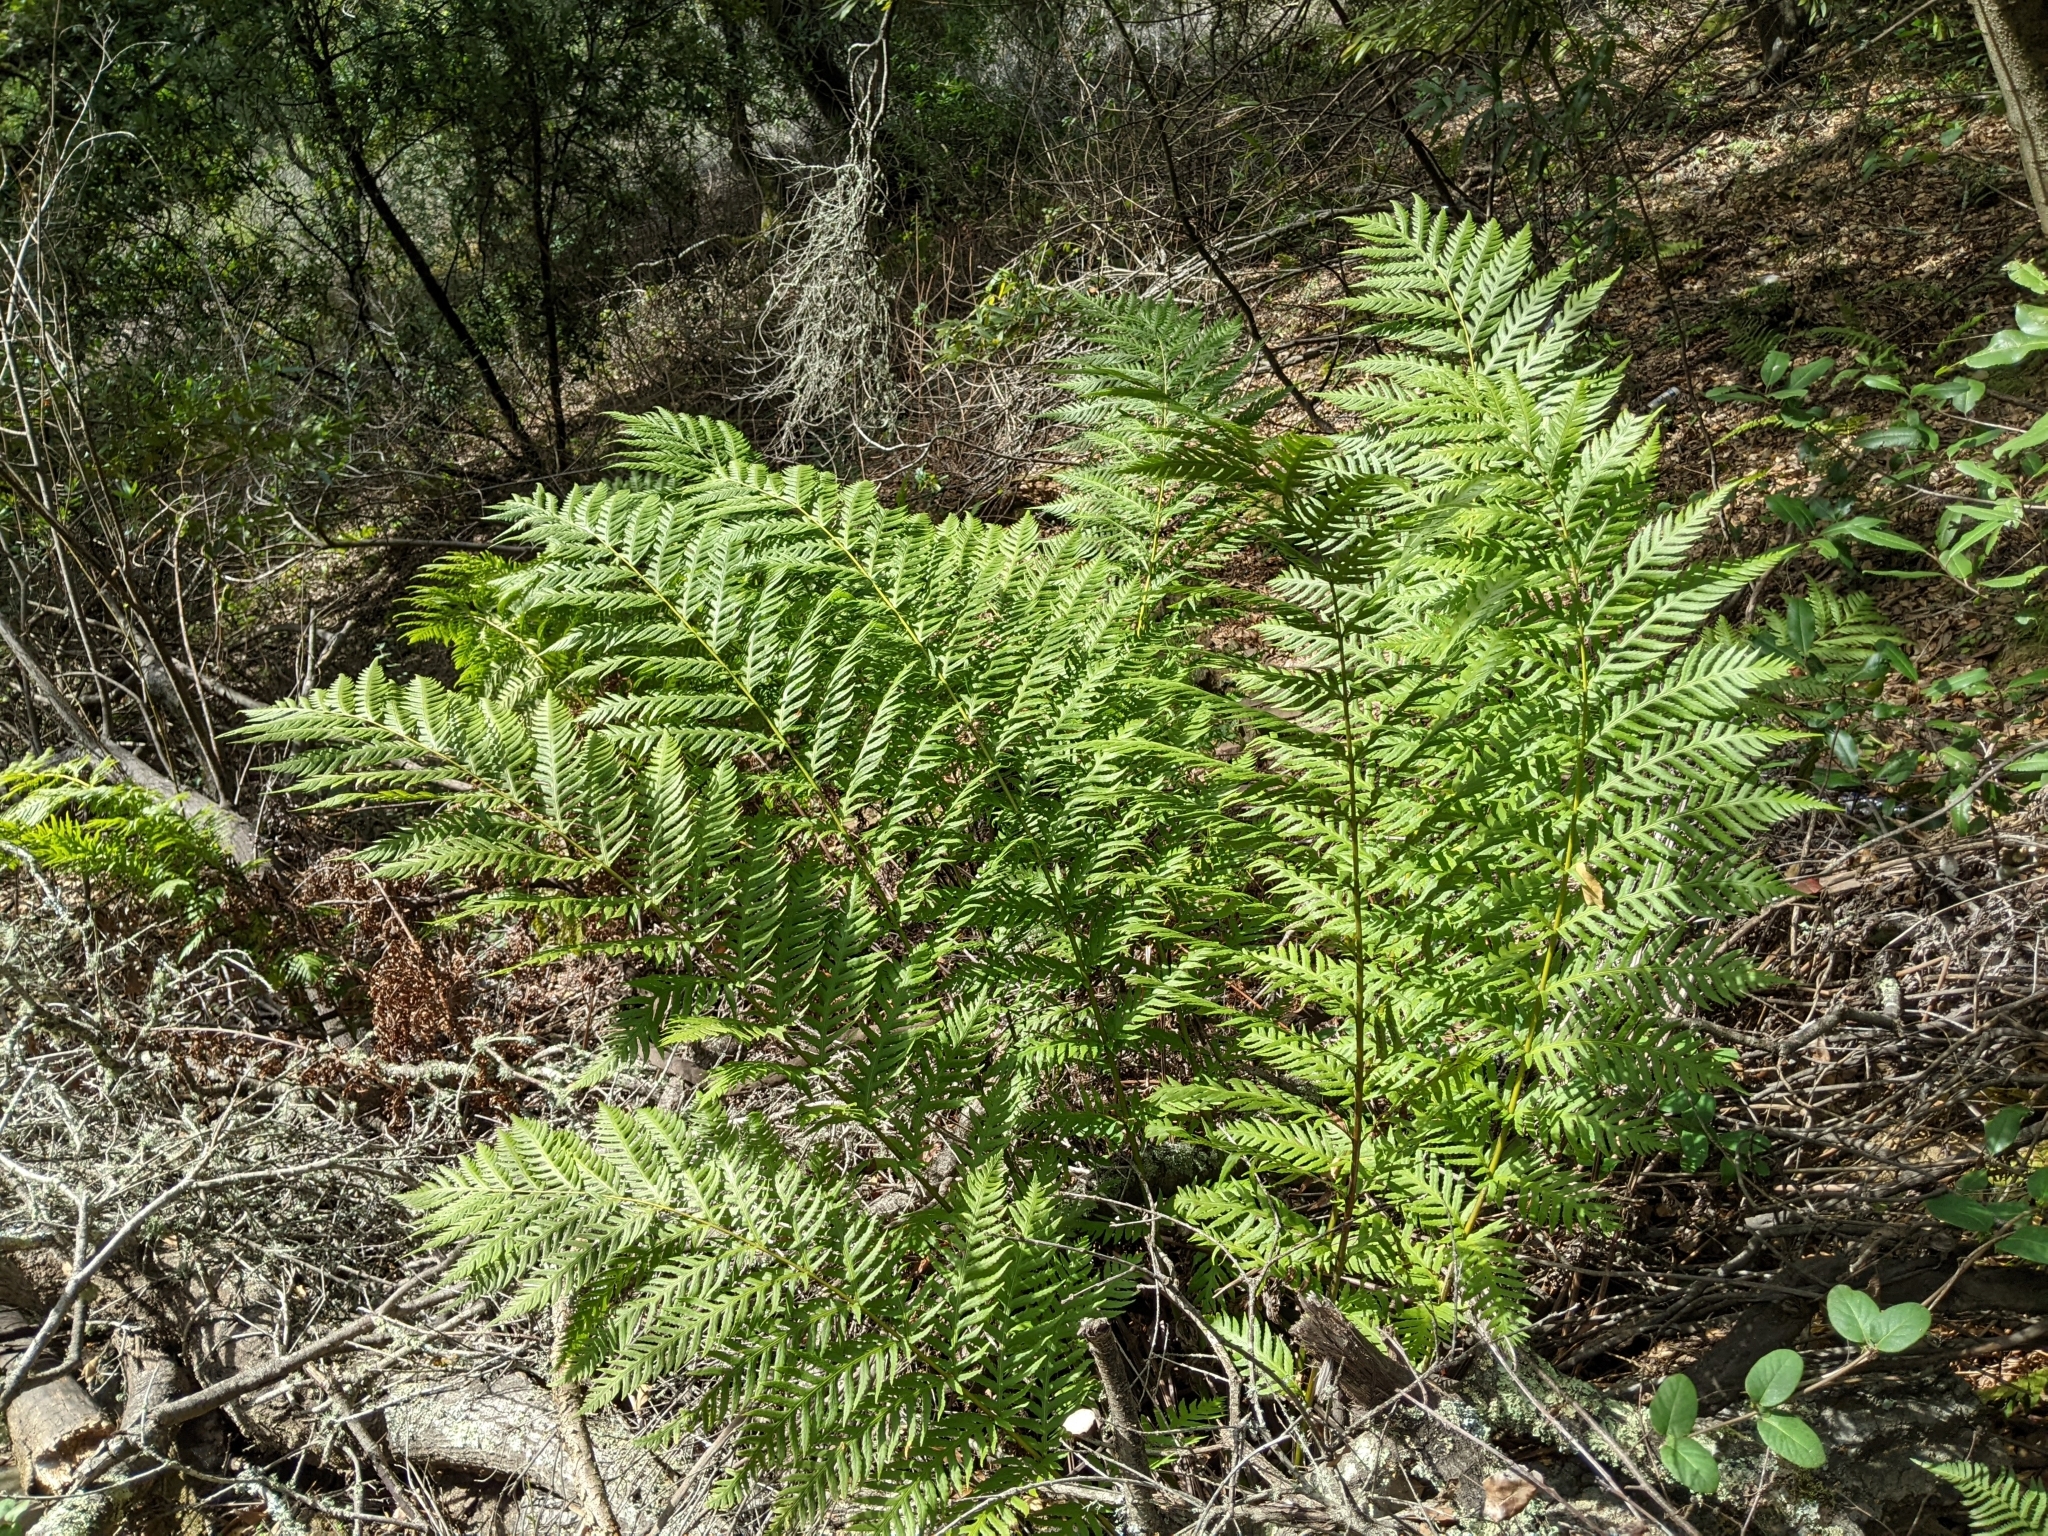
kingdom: Plantae
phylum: Tracheophyta
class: Polypodiopsida
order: Polypodiales
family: Blechnaceae
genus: Woodwardia
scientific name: Woodwardia fimbriata
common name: Giant chain fern
